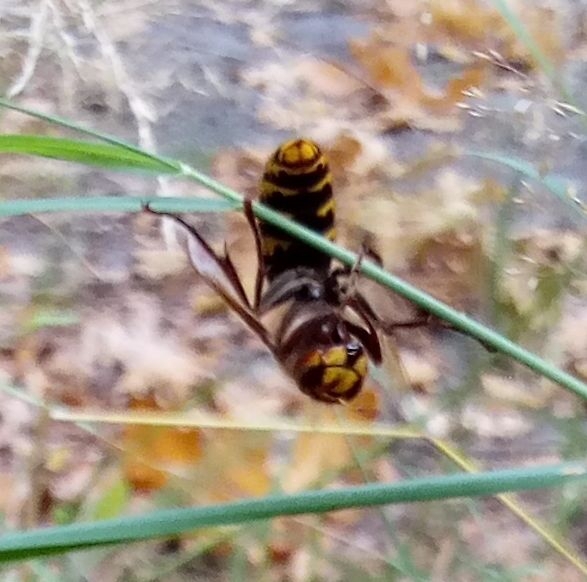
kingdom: Animalia
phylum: Arthropoda
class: Insecta
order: Hymenoptera
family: Vespidae
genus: Vespa
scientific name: Vespa crabro
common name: Hornet
